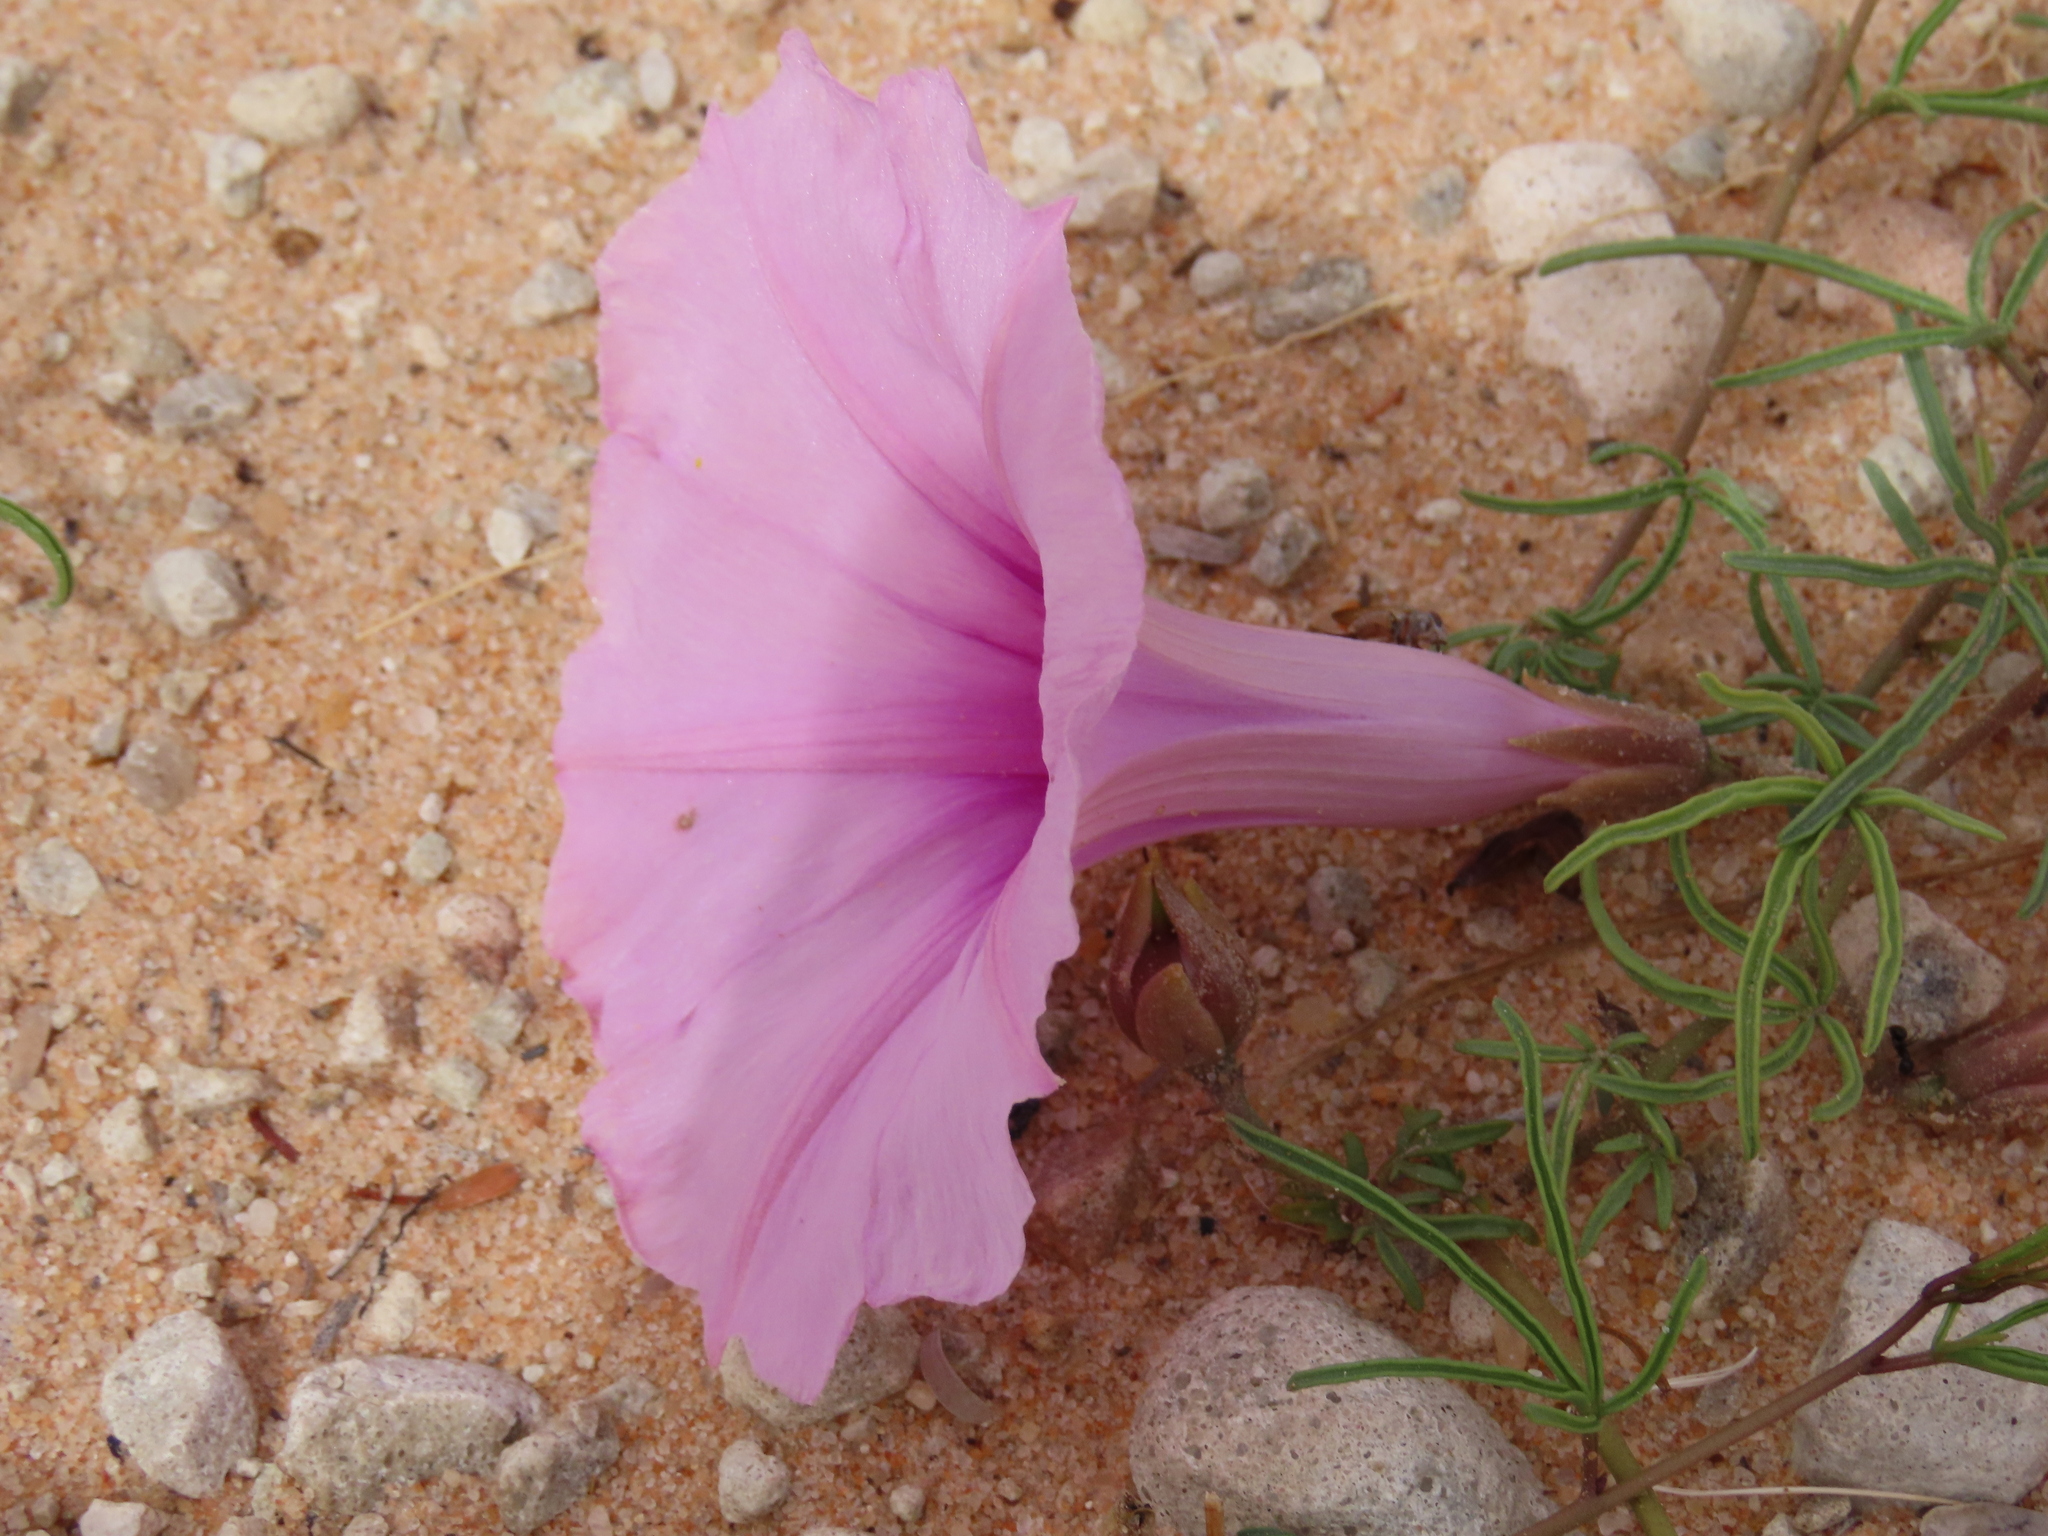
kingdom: Plantae
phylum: Tracheophyta
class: Magnoliopsida
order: Solanales
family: Convolvulaceae
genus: Ipomoea
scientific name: Ipomoea bolusiana
